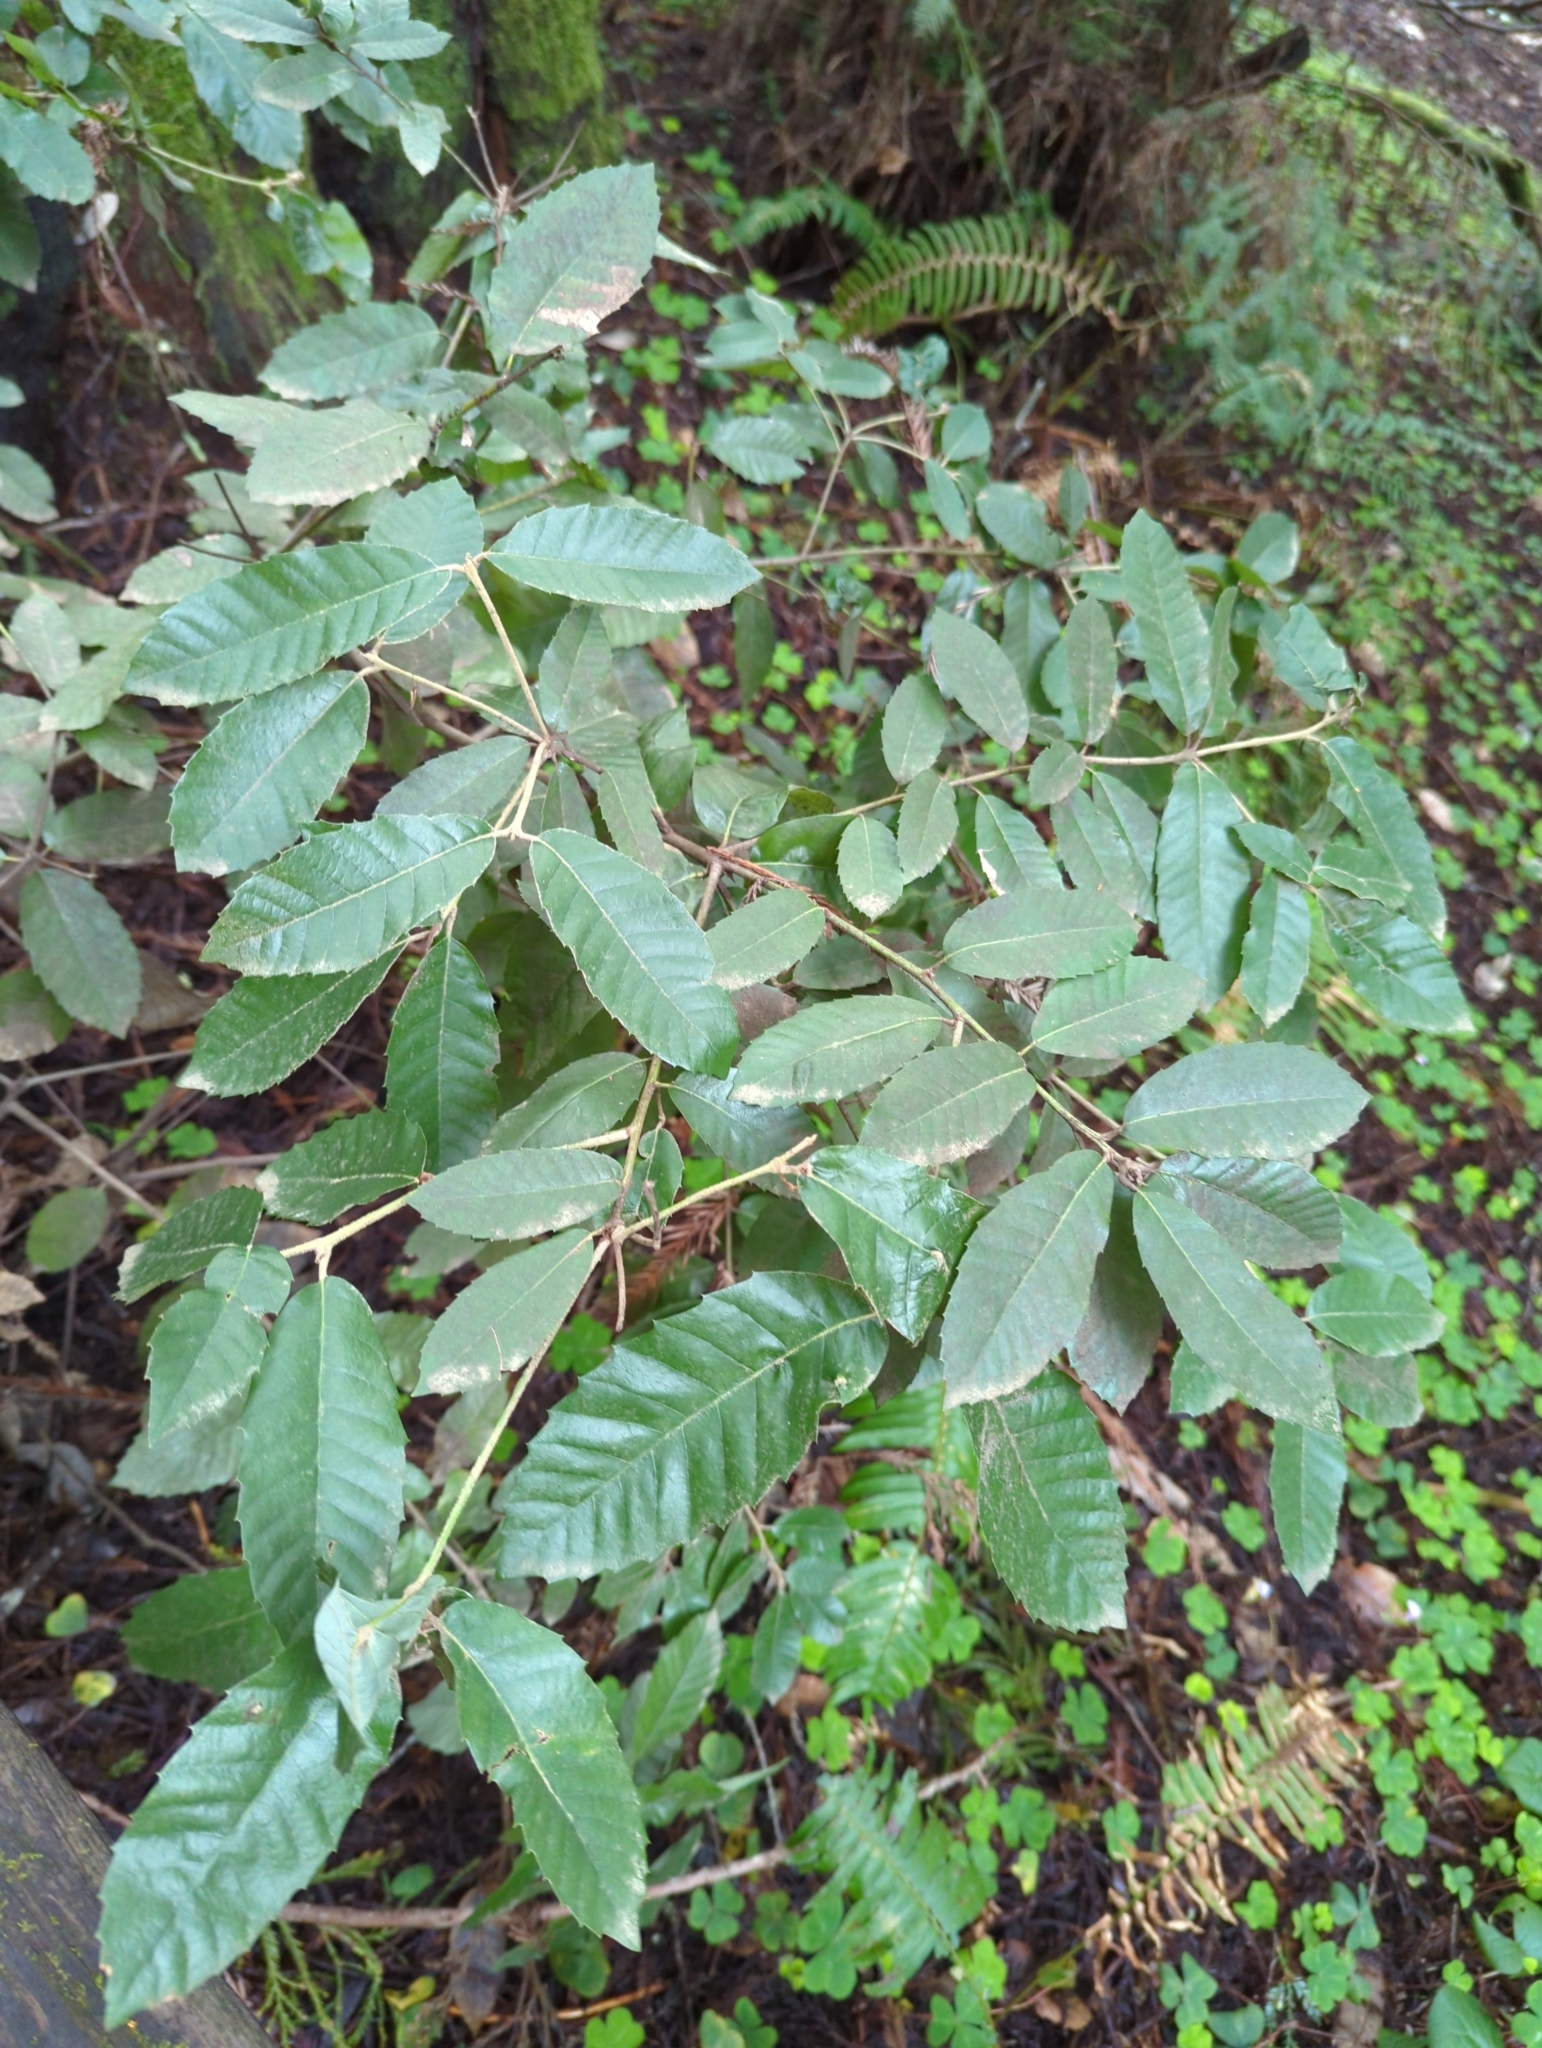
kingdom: Plantae
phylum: Tracheophyta
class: Magnoliopsida
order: Fagales
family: Fagaceae
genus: Notholithocarpus
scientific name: Notholithocarpus densiflorus
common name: Tan bark oak
